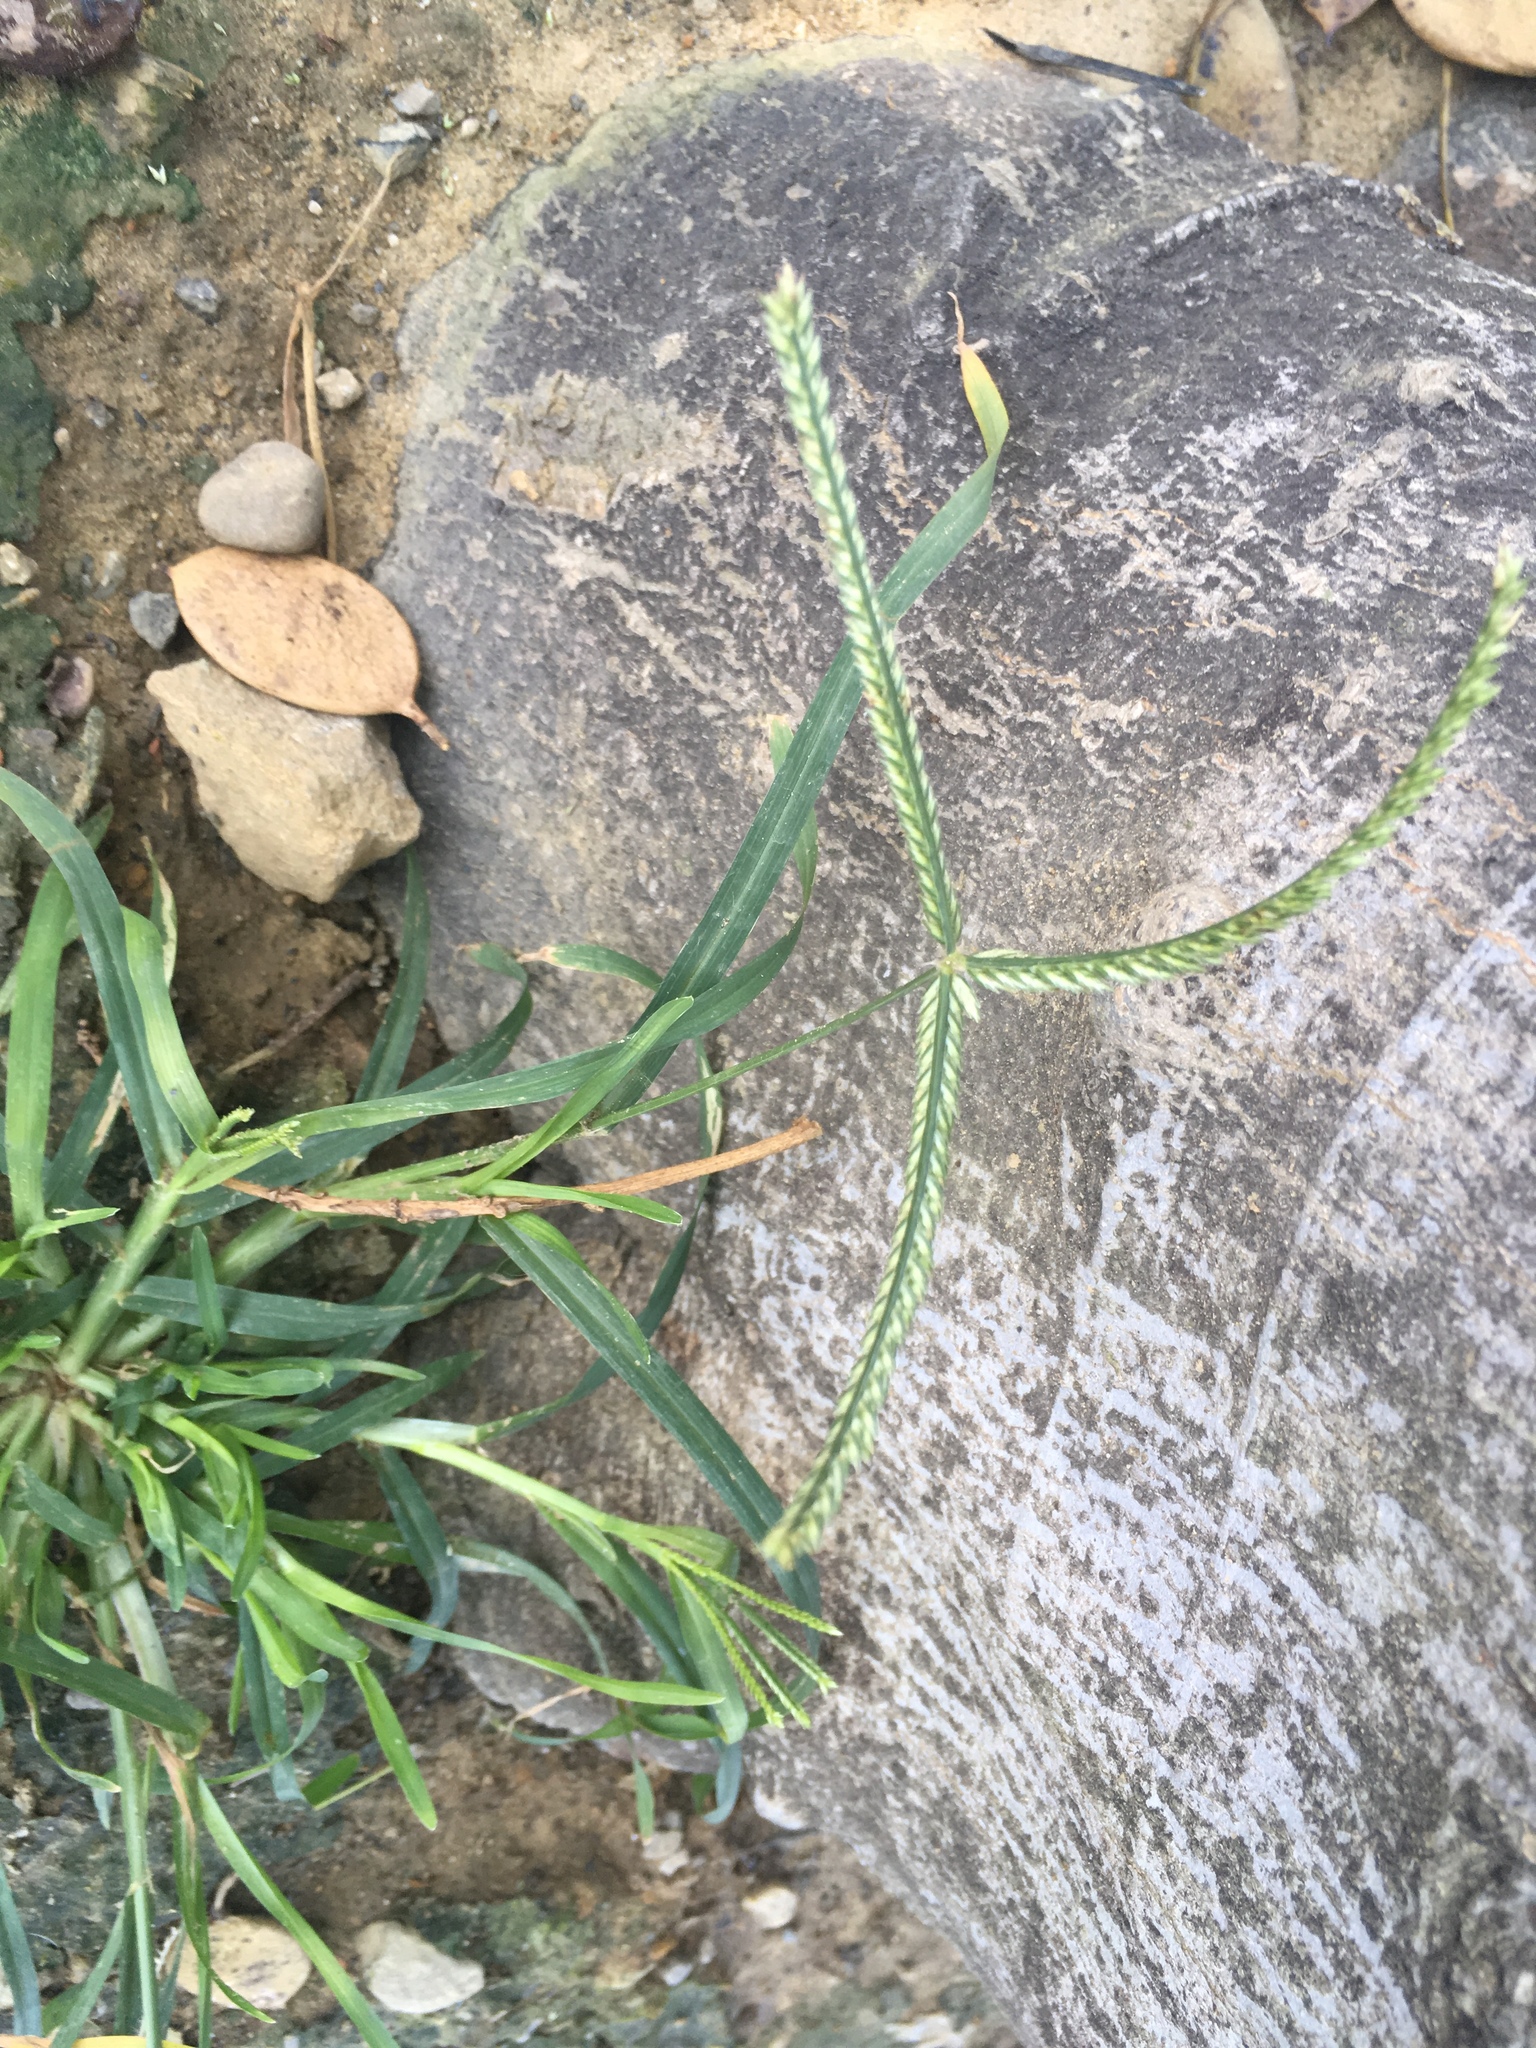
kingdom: Plantae
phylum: Tracheophyta
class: Liliopsida
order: Poales
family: Poaceae
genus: Eleusine
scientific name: Eleusine indica
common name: Yard-grass
